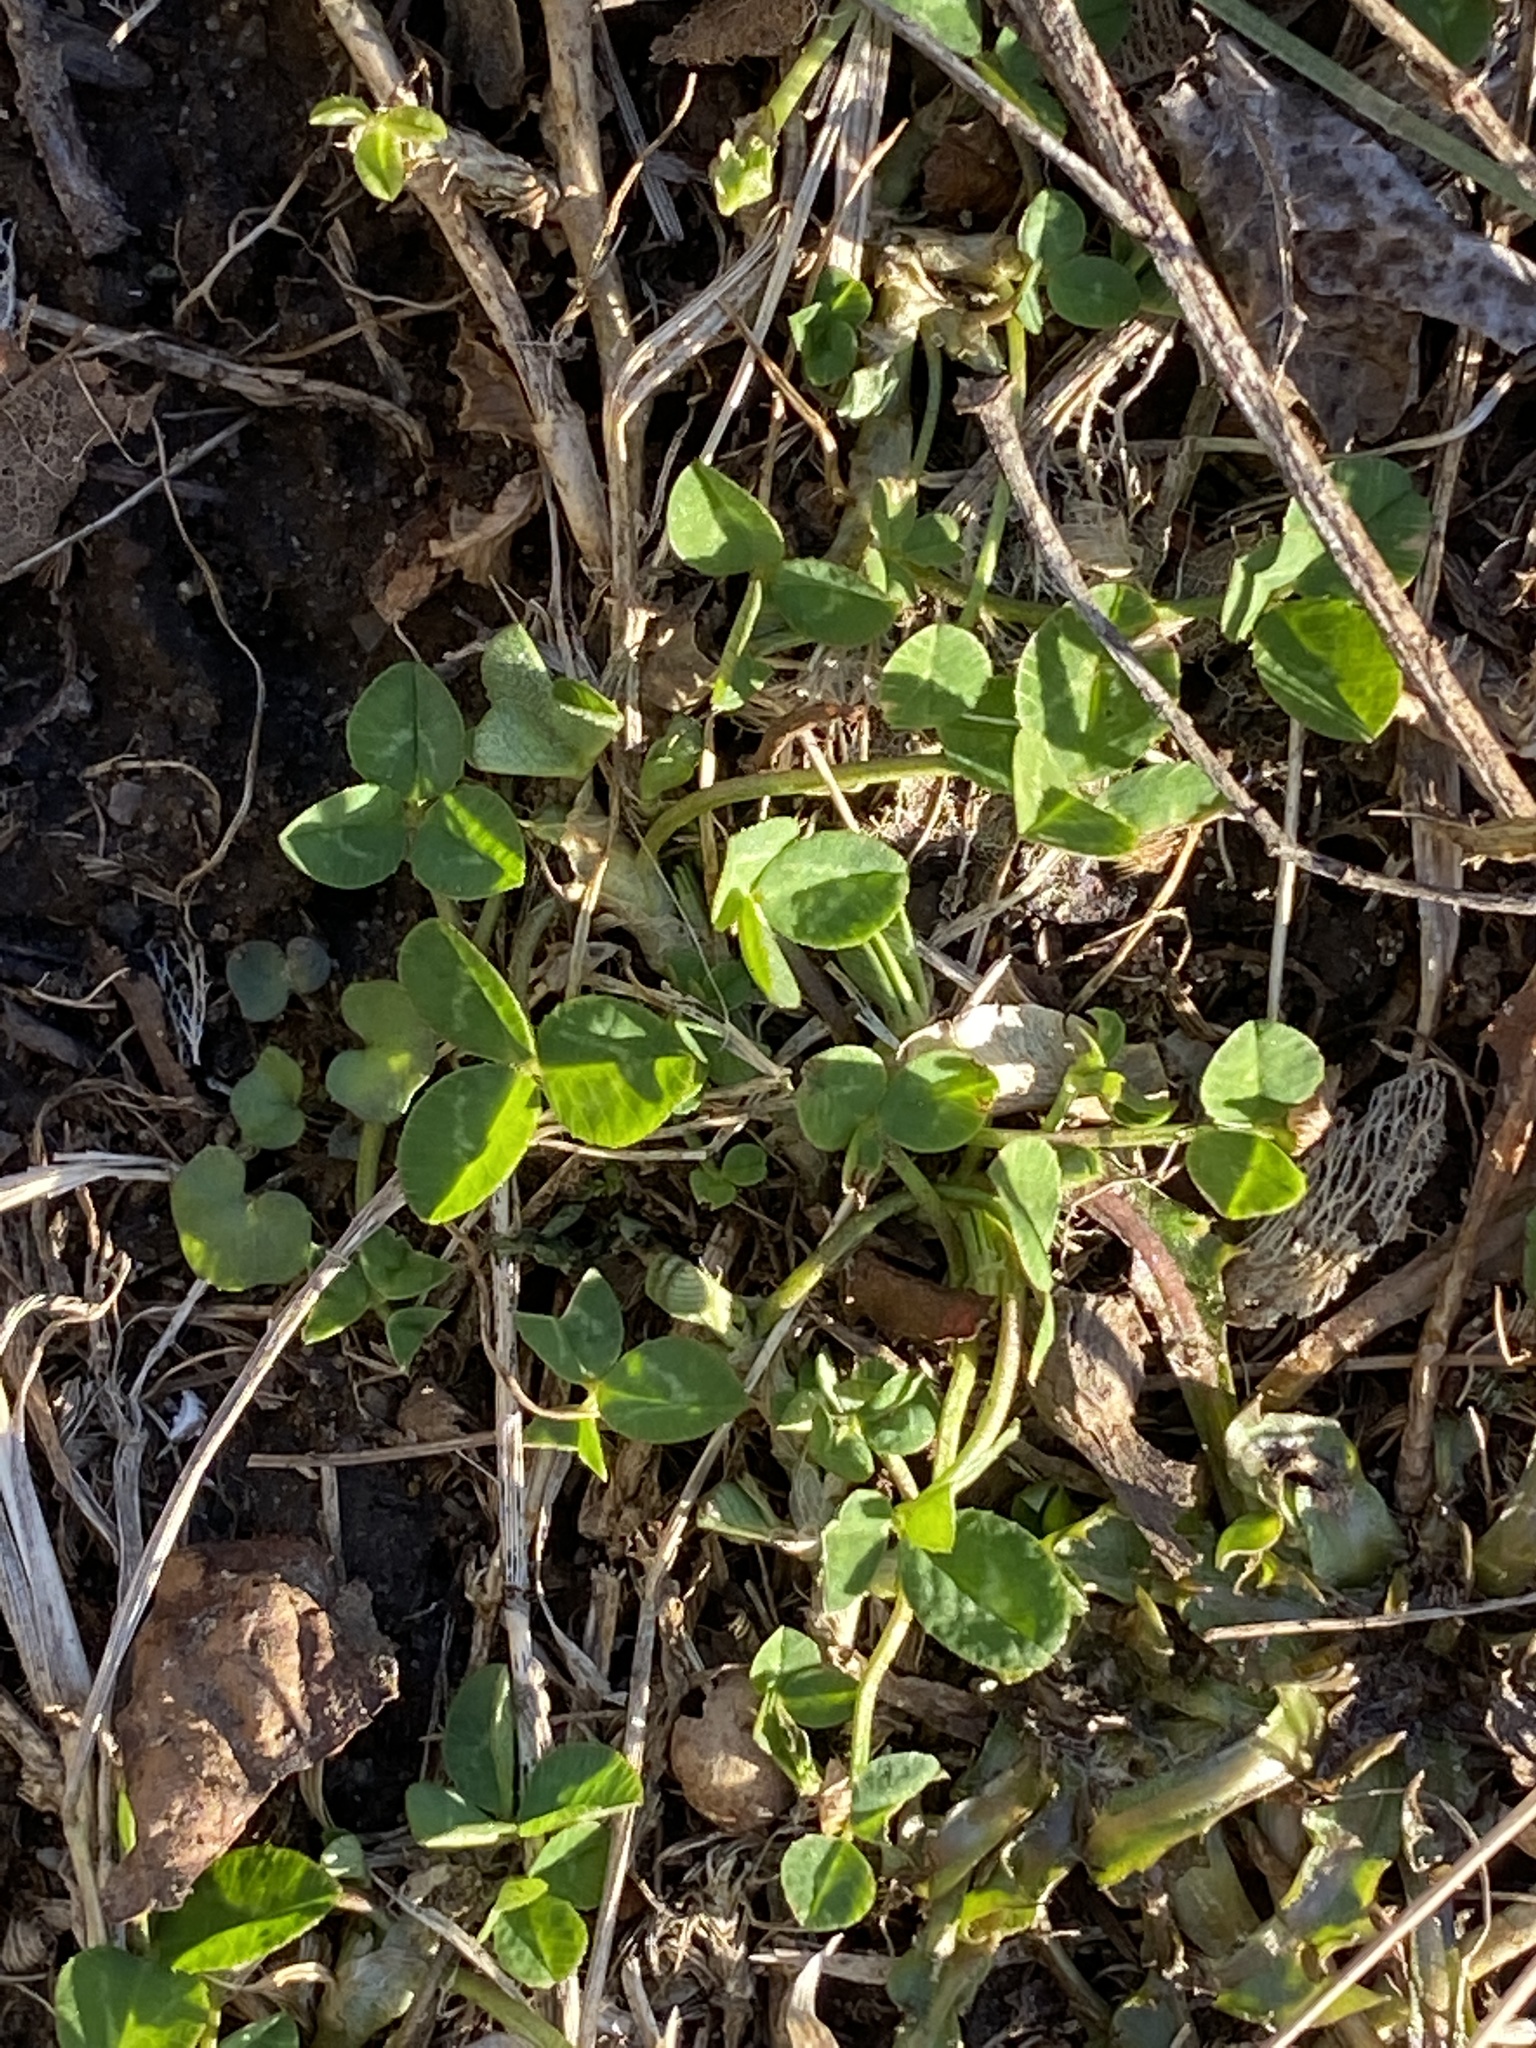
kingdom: Plantae
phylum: Tracheophyta
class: Magnoliopsida
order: Fabales
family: Fabaceae
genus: Trifolium
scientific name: Trifolium repens
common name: White clover
